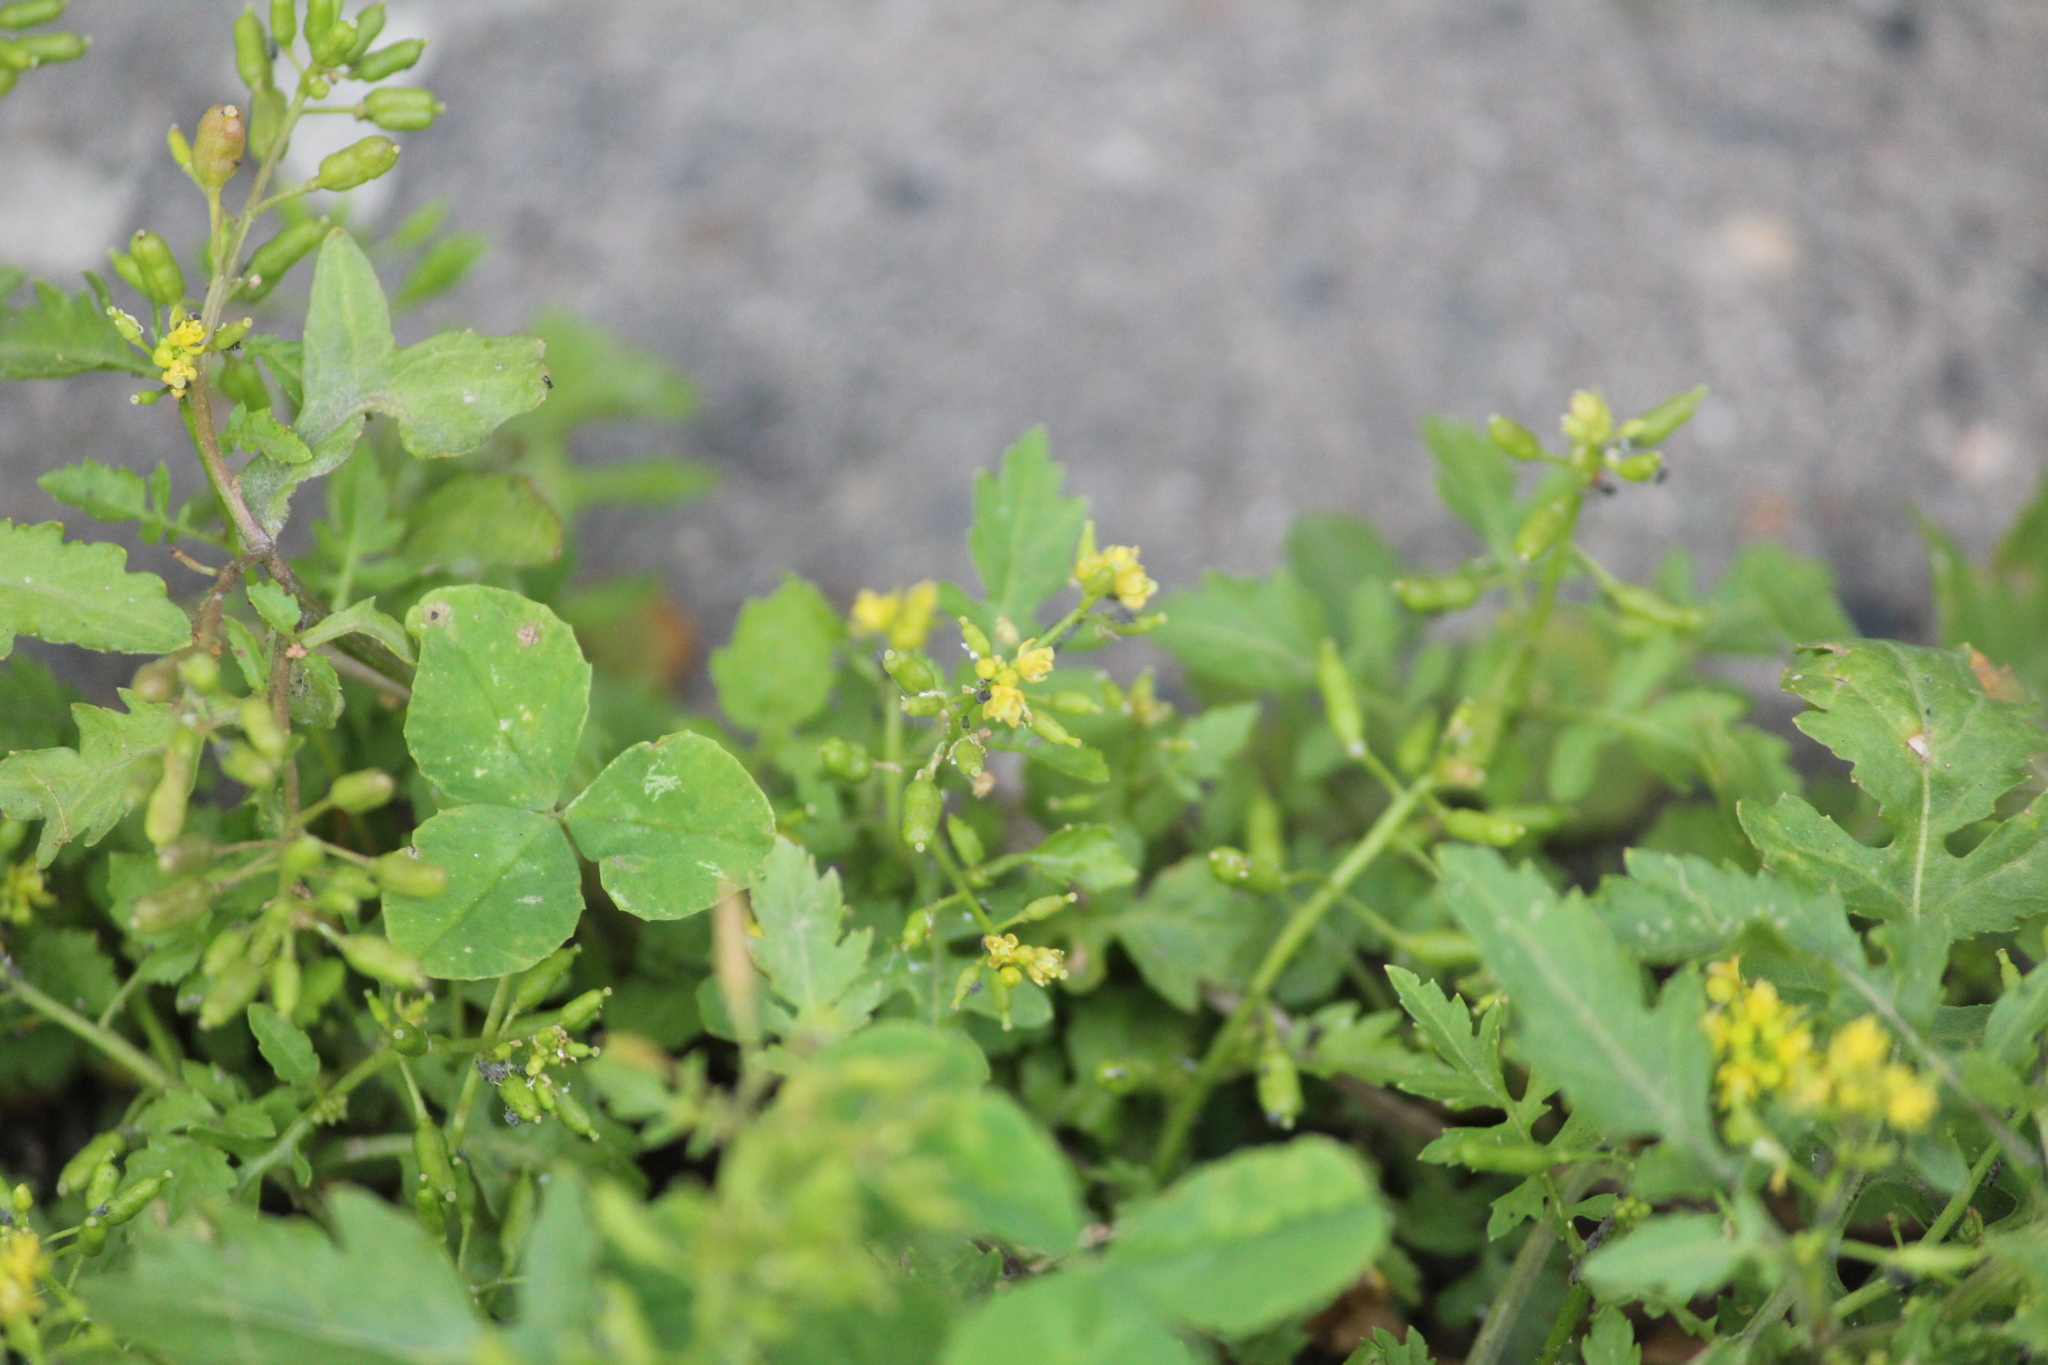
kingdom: Plantae
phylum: Tracheophyta
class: Magnoliopsida
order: Brassicales
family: Brassicaceae
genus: Rorippa
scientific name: Rorippa palustris
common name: Marsh yellow-cress
